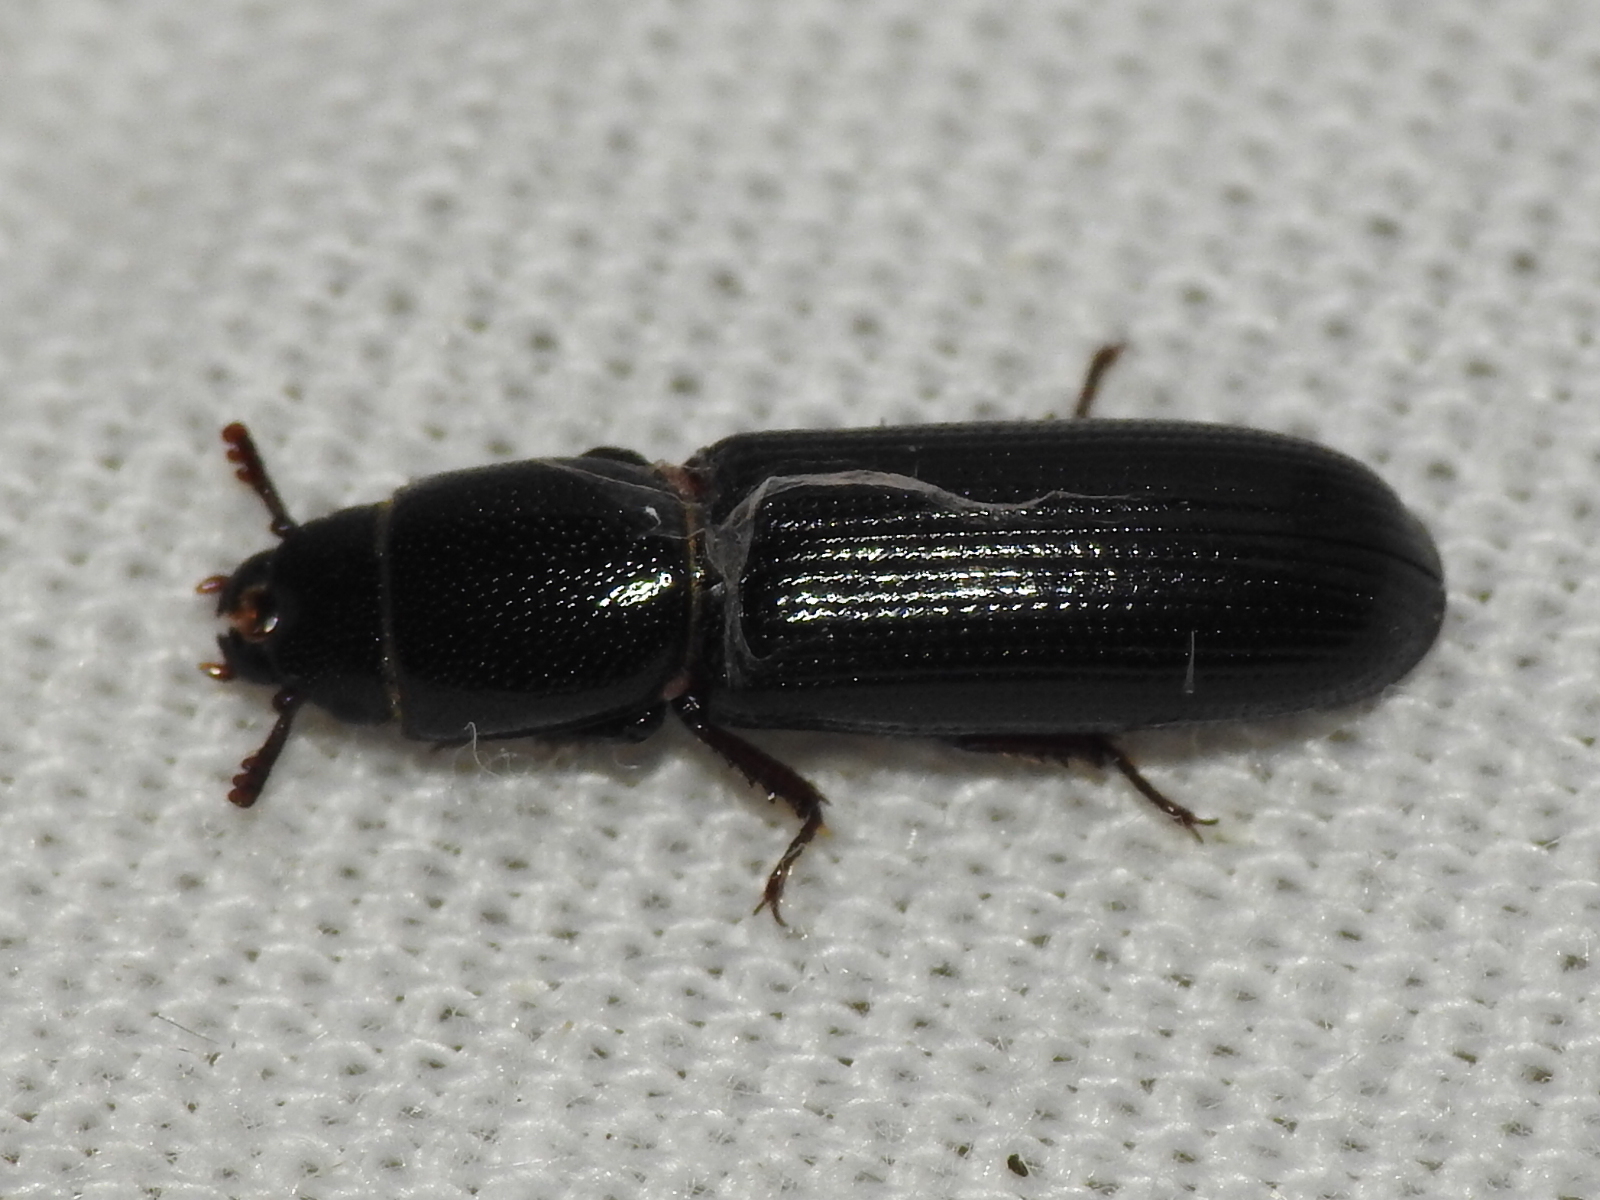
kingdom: Animalia
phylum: Arthropoda
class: Insecta
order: Coleoptera
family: Trogossitidae
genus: Airora
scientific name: Airora cylindrica
